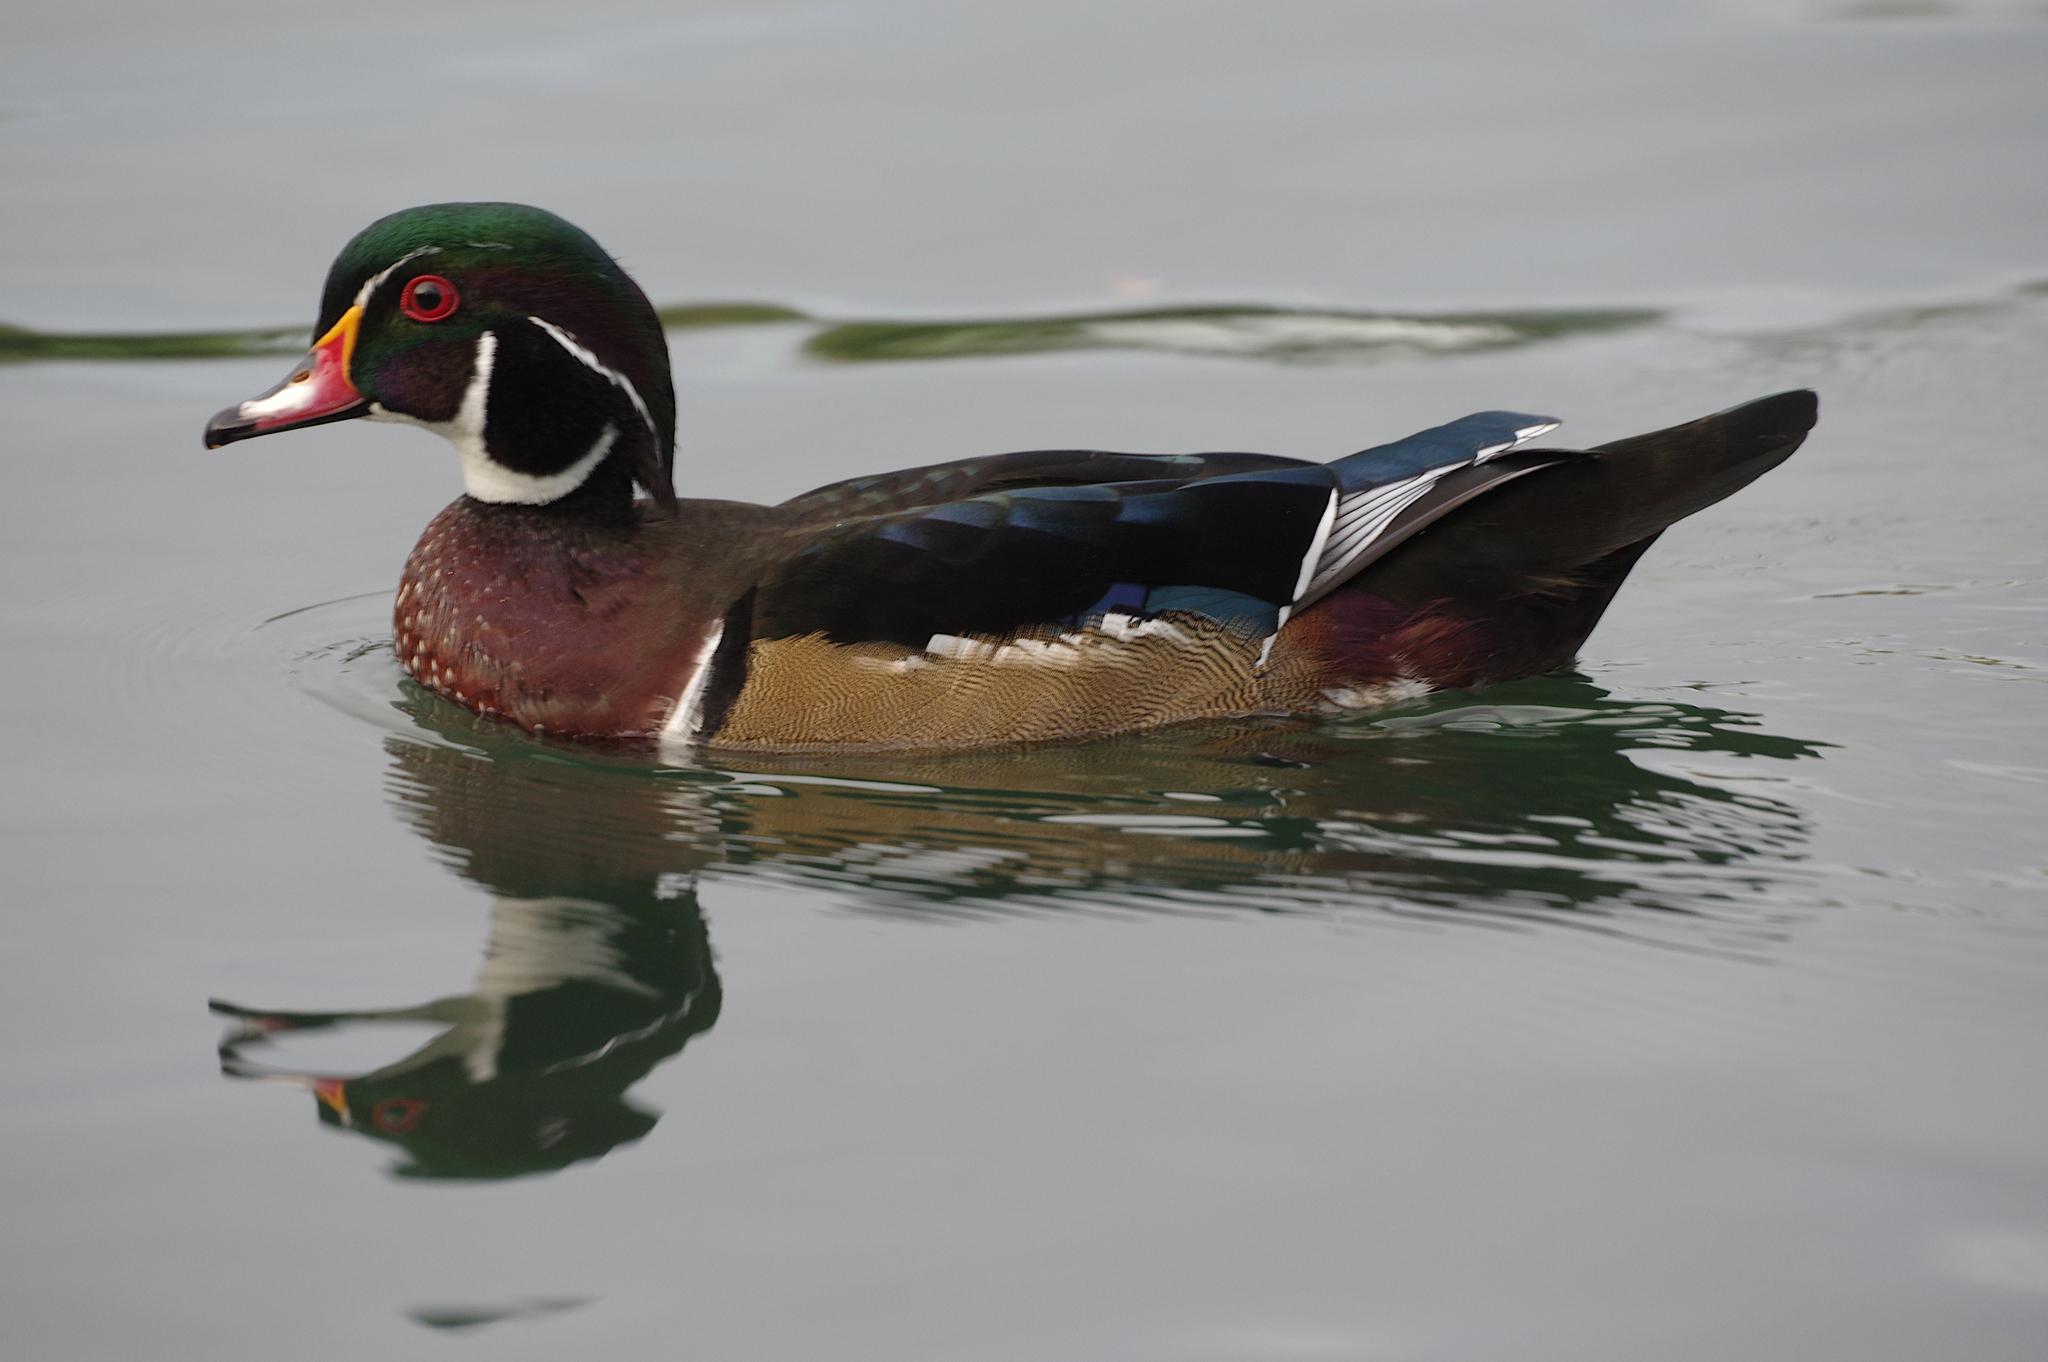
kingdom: Animalia
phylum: Chordata
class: Aves
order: Anseriformes
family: Anatidae
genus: Aix
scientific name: Aix sponsa
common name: Wood duck
